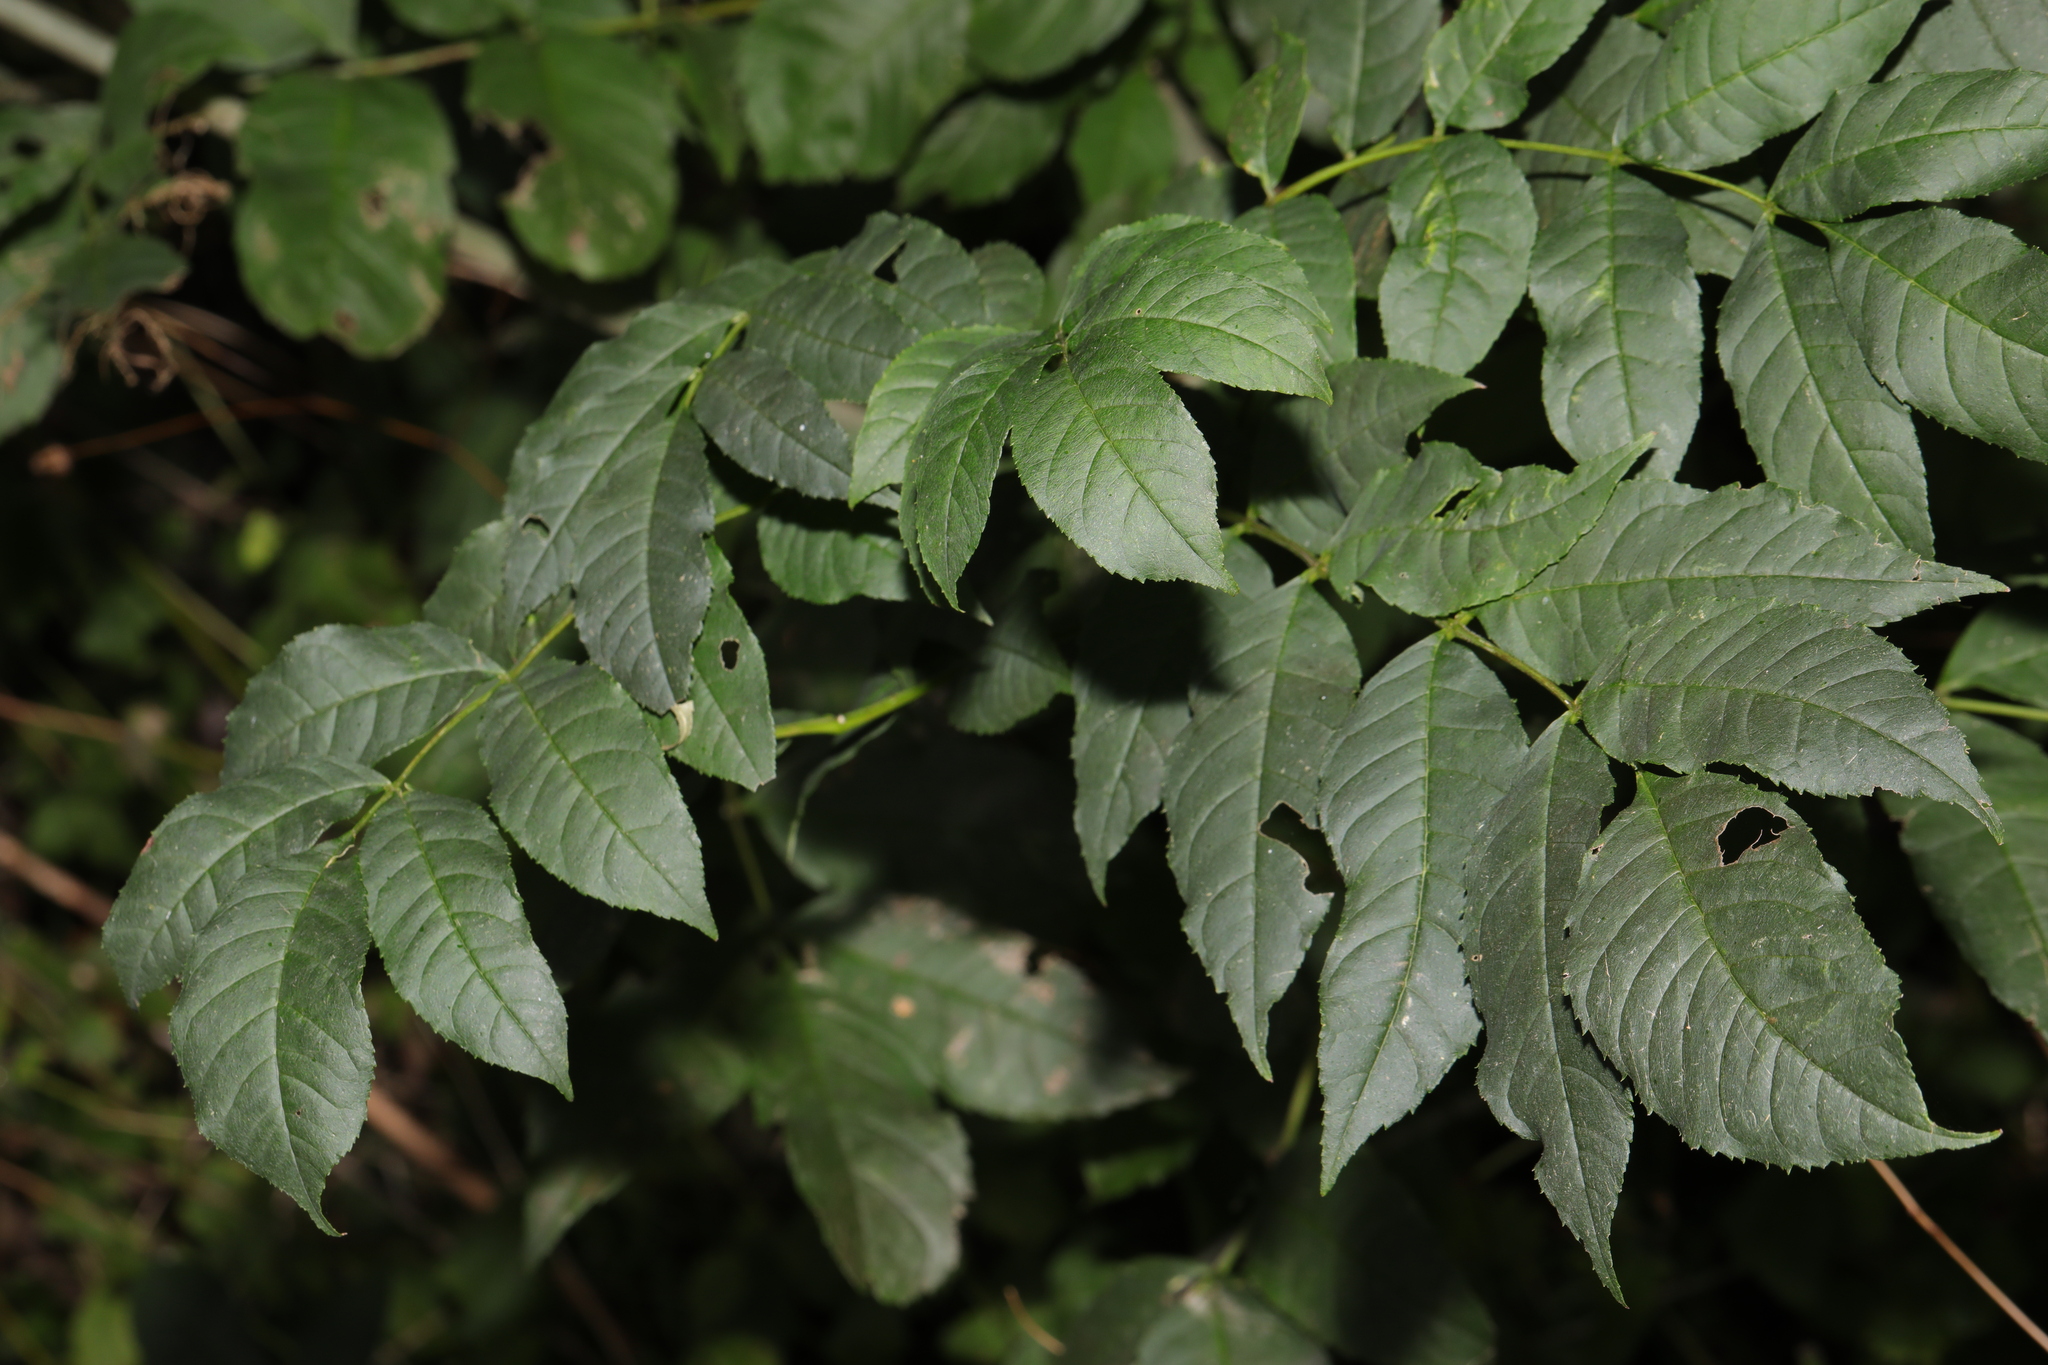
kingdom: Plantae
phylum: Tracheophyta
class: Magnoliopsida
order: Lamiales
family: Oleaceae
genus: Fraxinus
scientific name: Fraxinus excelsior
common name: European ash
